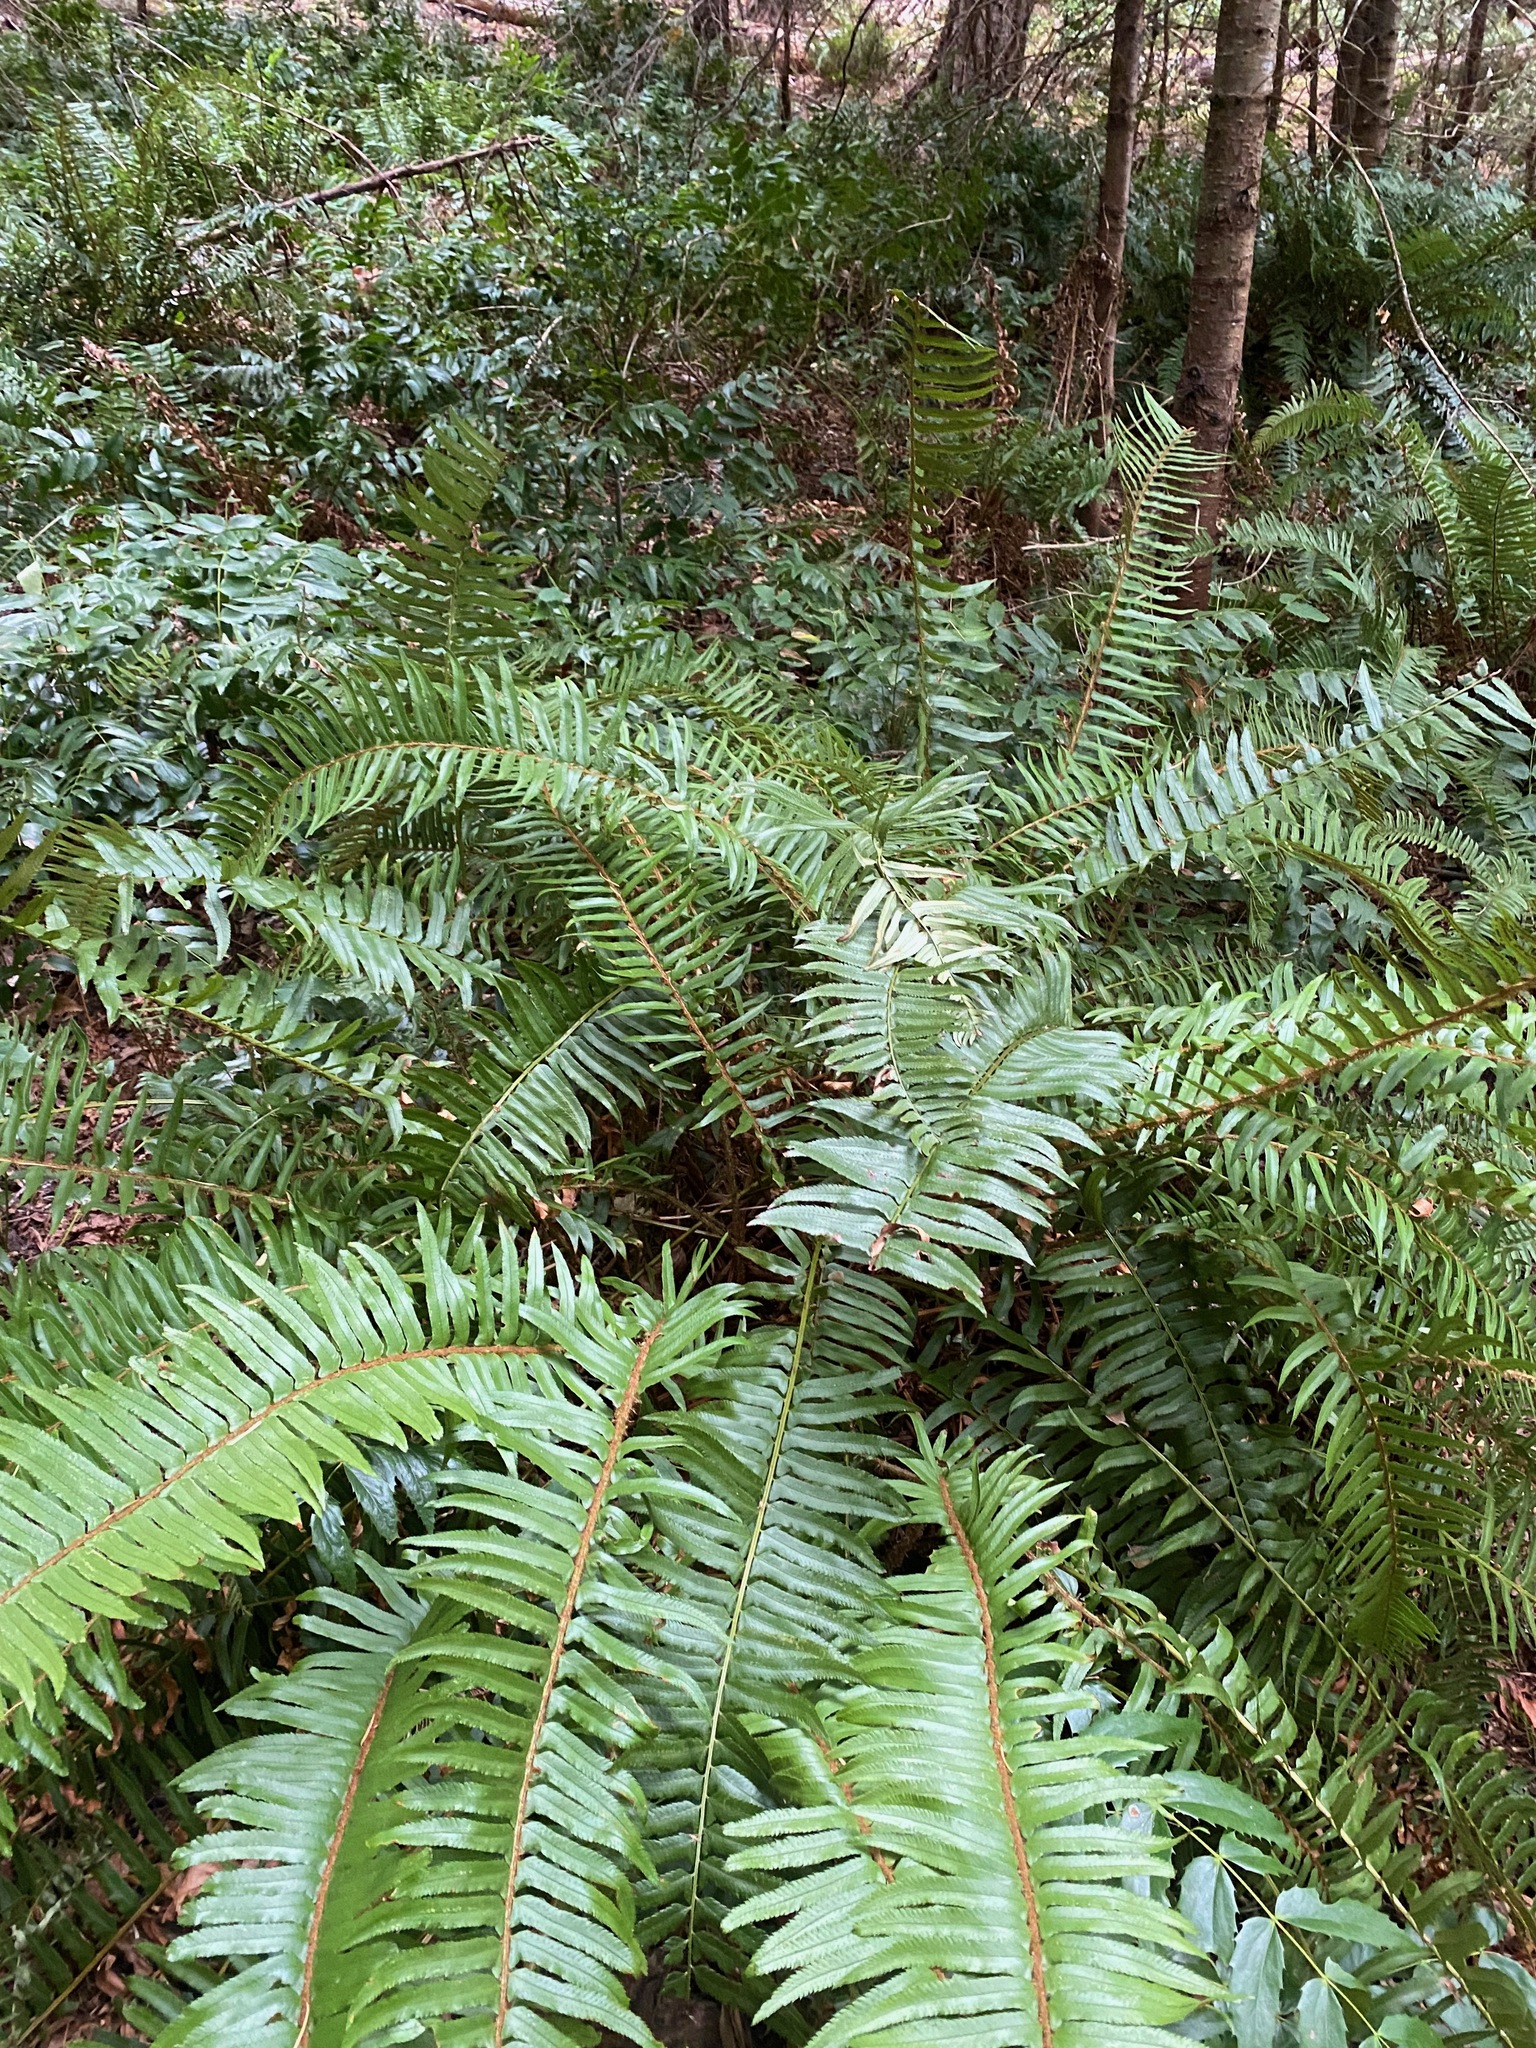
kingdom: Plantae
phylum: Tracheophyta
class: Polypodiopsida
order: Polypodiales
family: Dryopteridaceae
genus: Polystichum
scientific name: Polystichum munitum
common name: Western sword-fern
